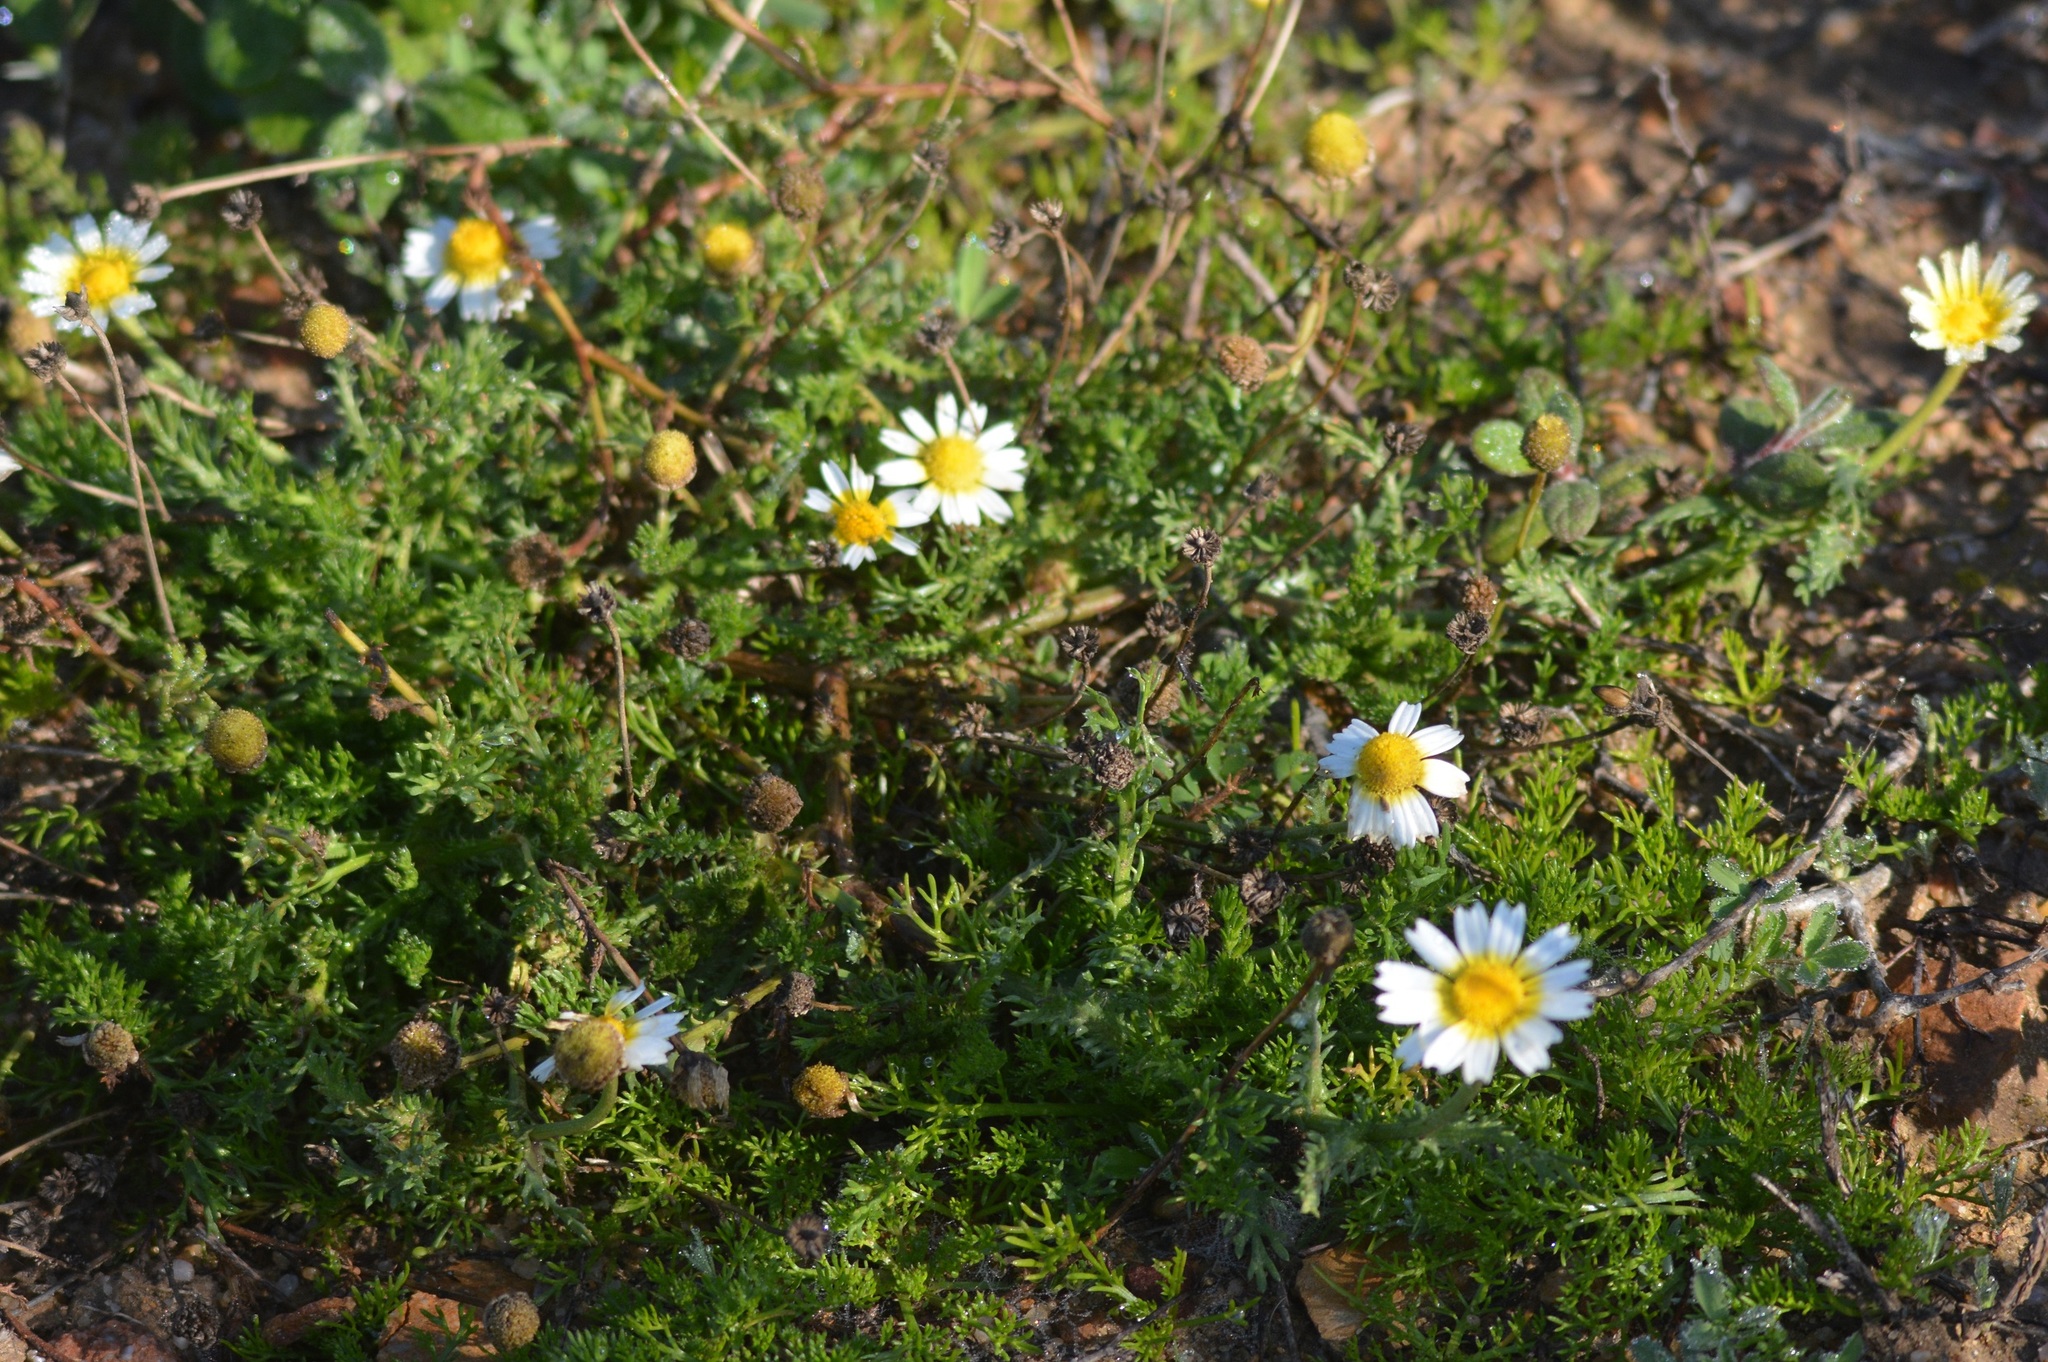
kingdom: Plantae
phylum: Tracheophyta
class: Magnoliopsida
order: Asterales
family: Asteraceae
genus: Glebionis
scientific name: Glebionis coronaria
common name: Crowndaisy
